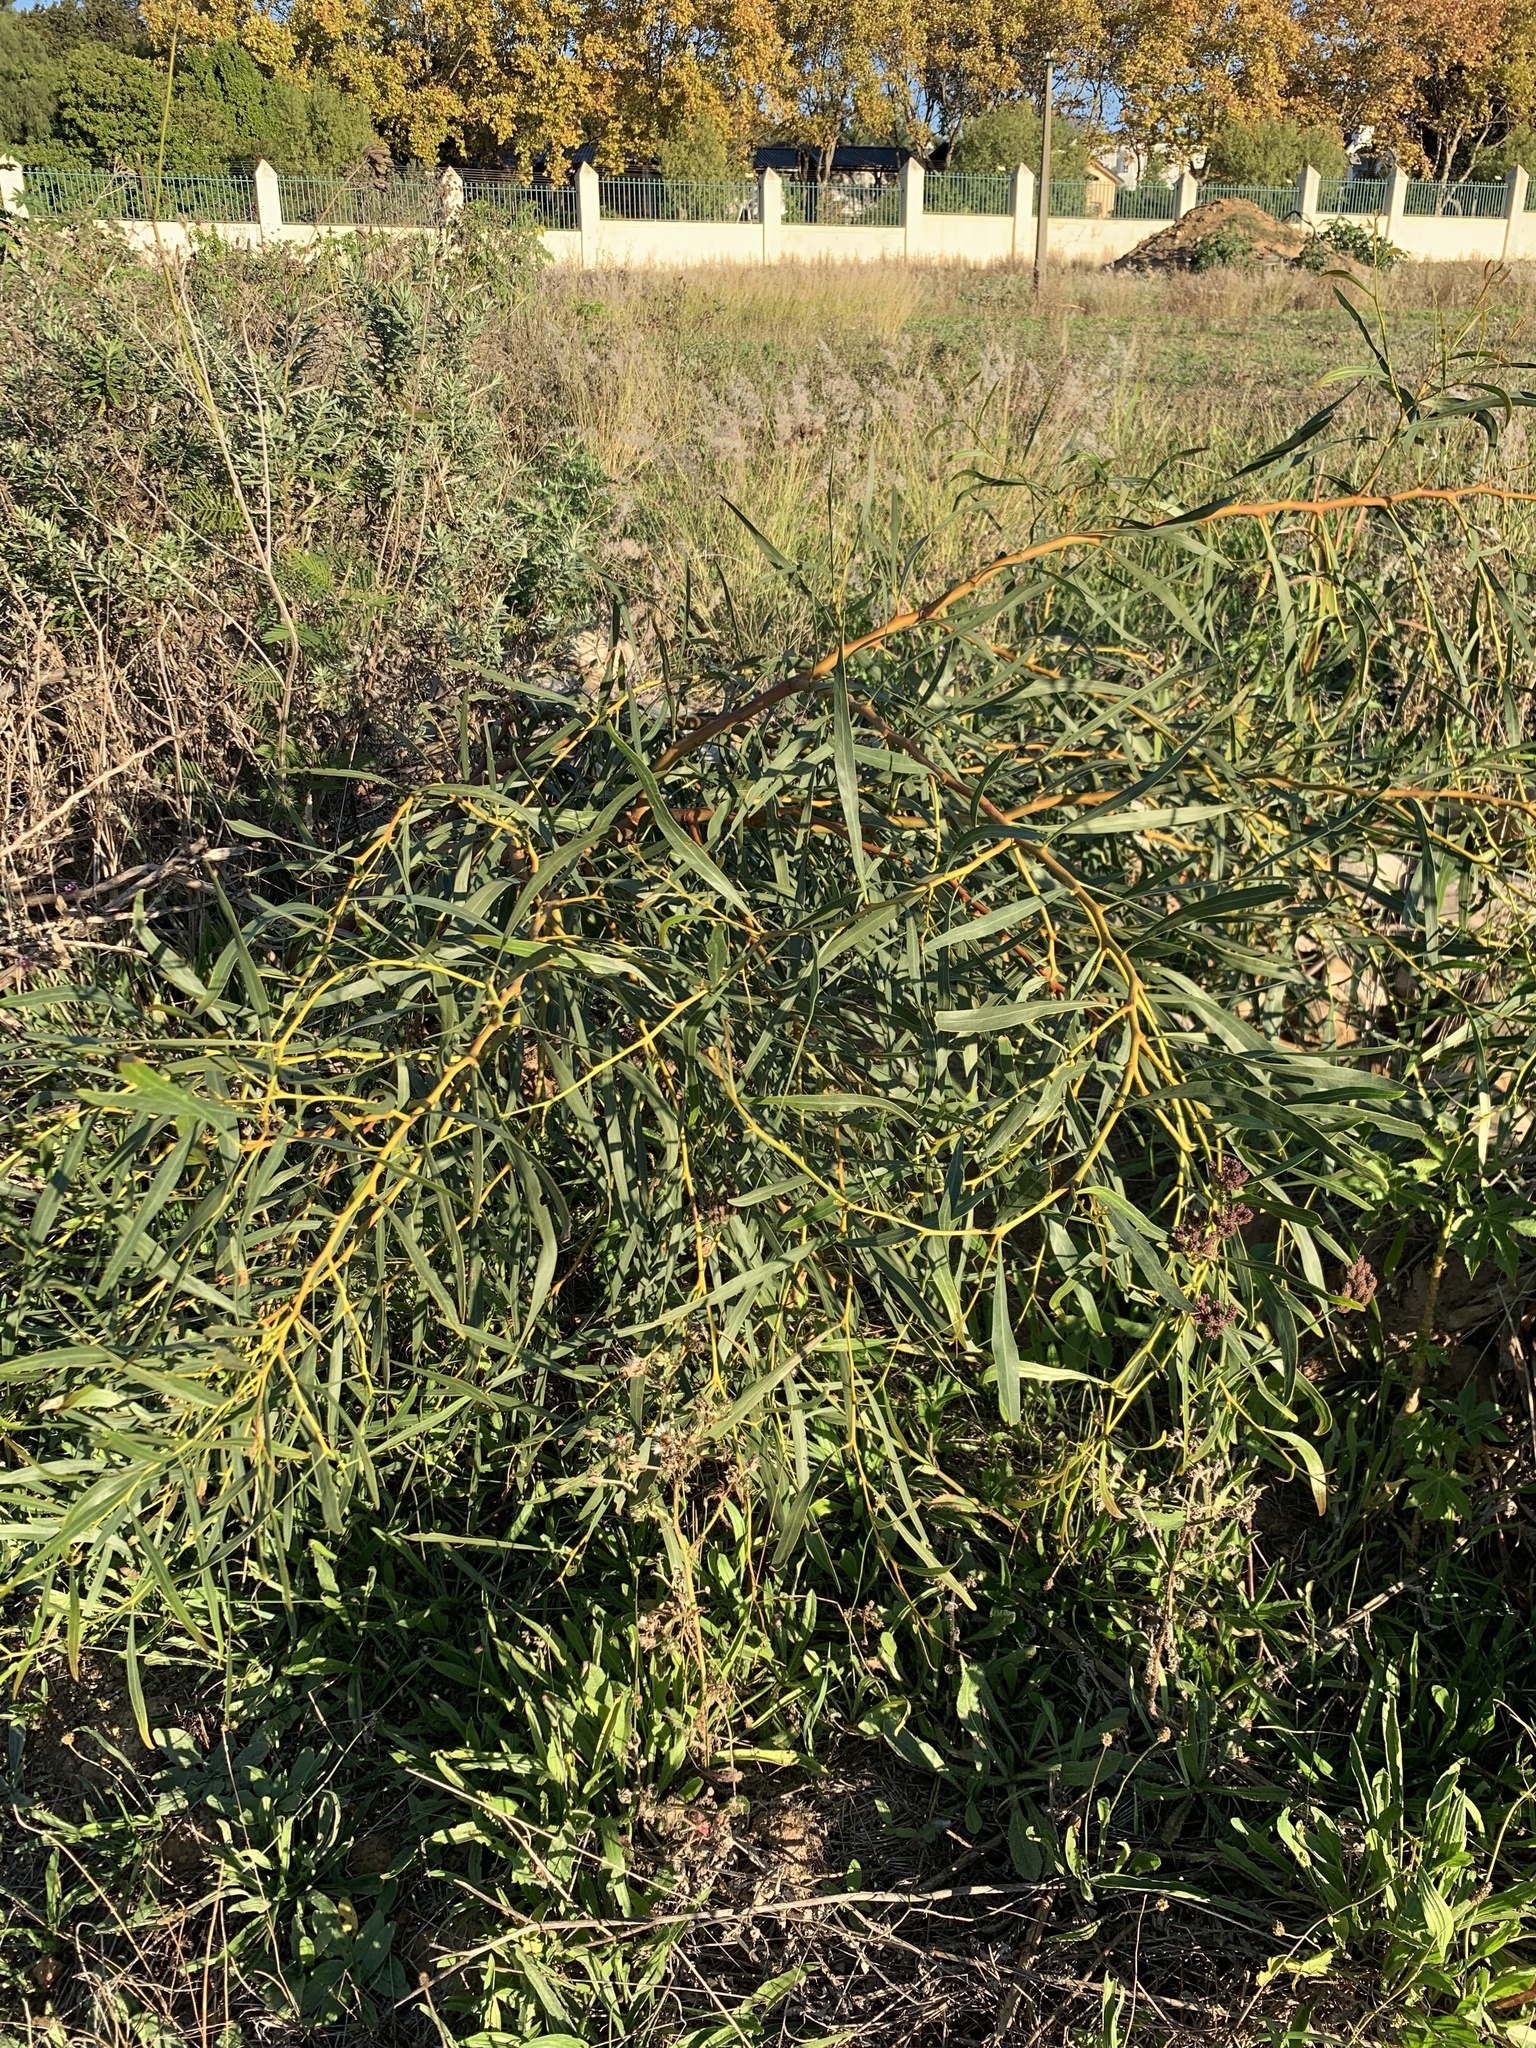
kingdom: Plantae
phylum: Tracheophyta
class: Magnoliopsida
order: Fabales
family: Fabaceae
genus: Acacia
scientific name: Acacia saligna
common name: Orange wattle
